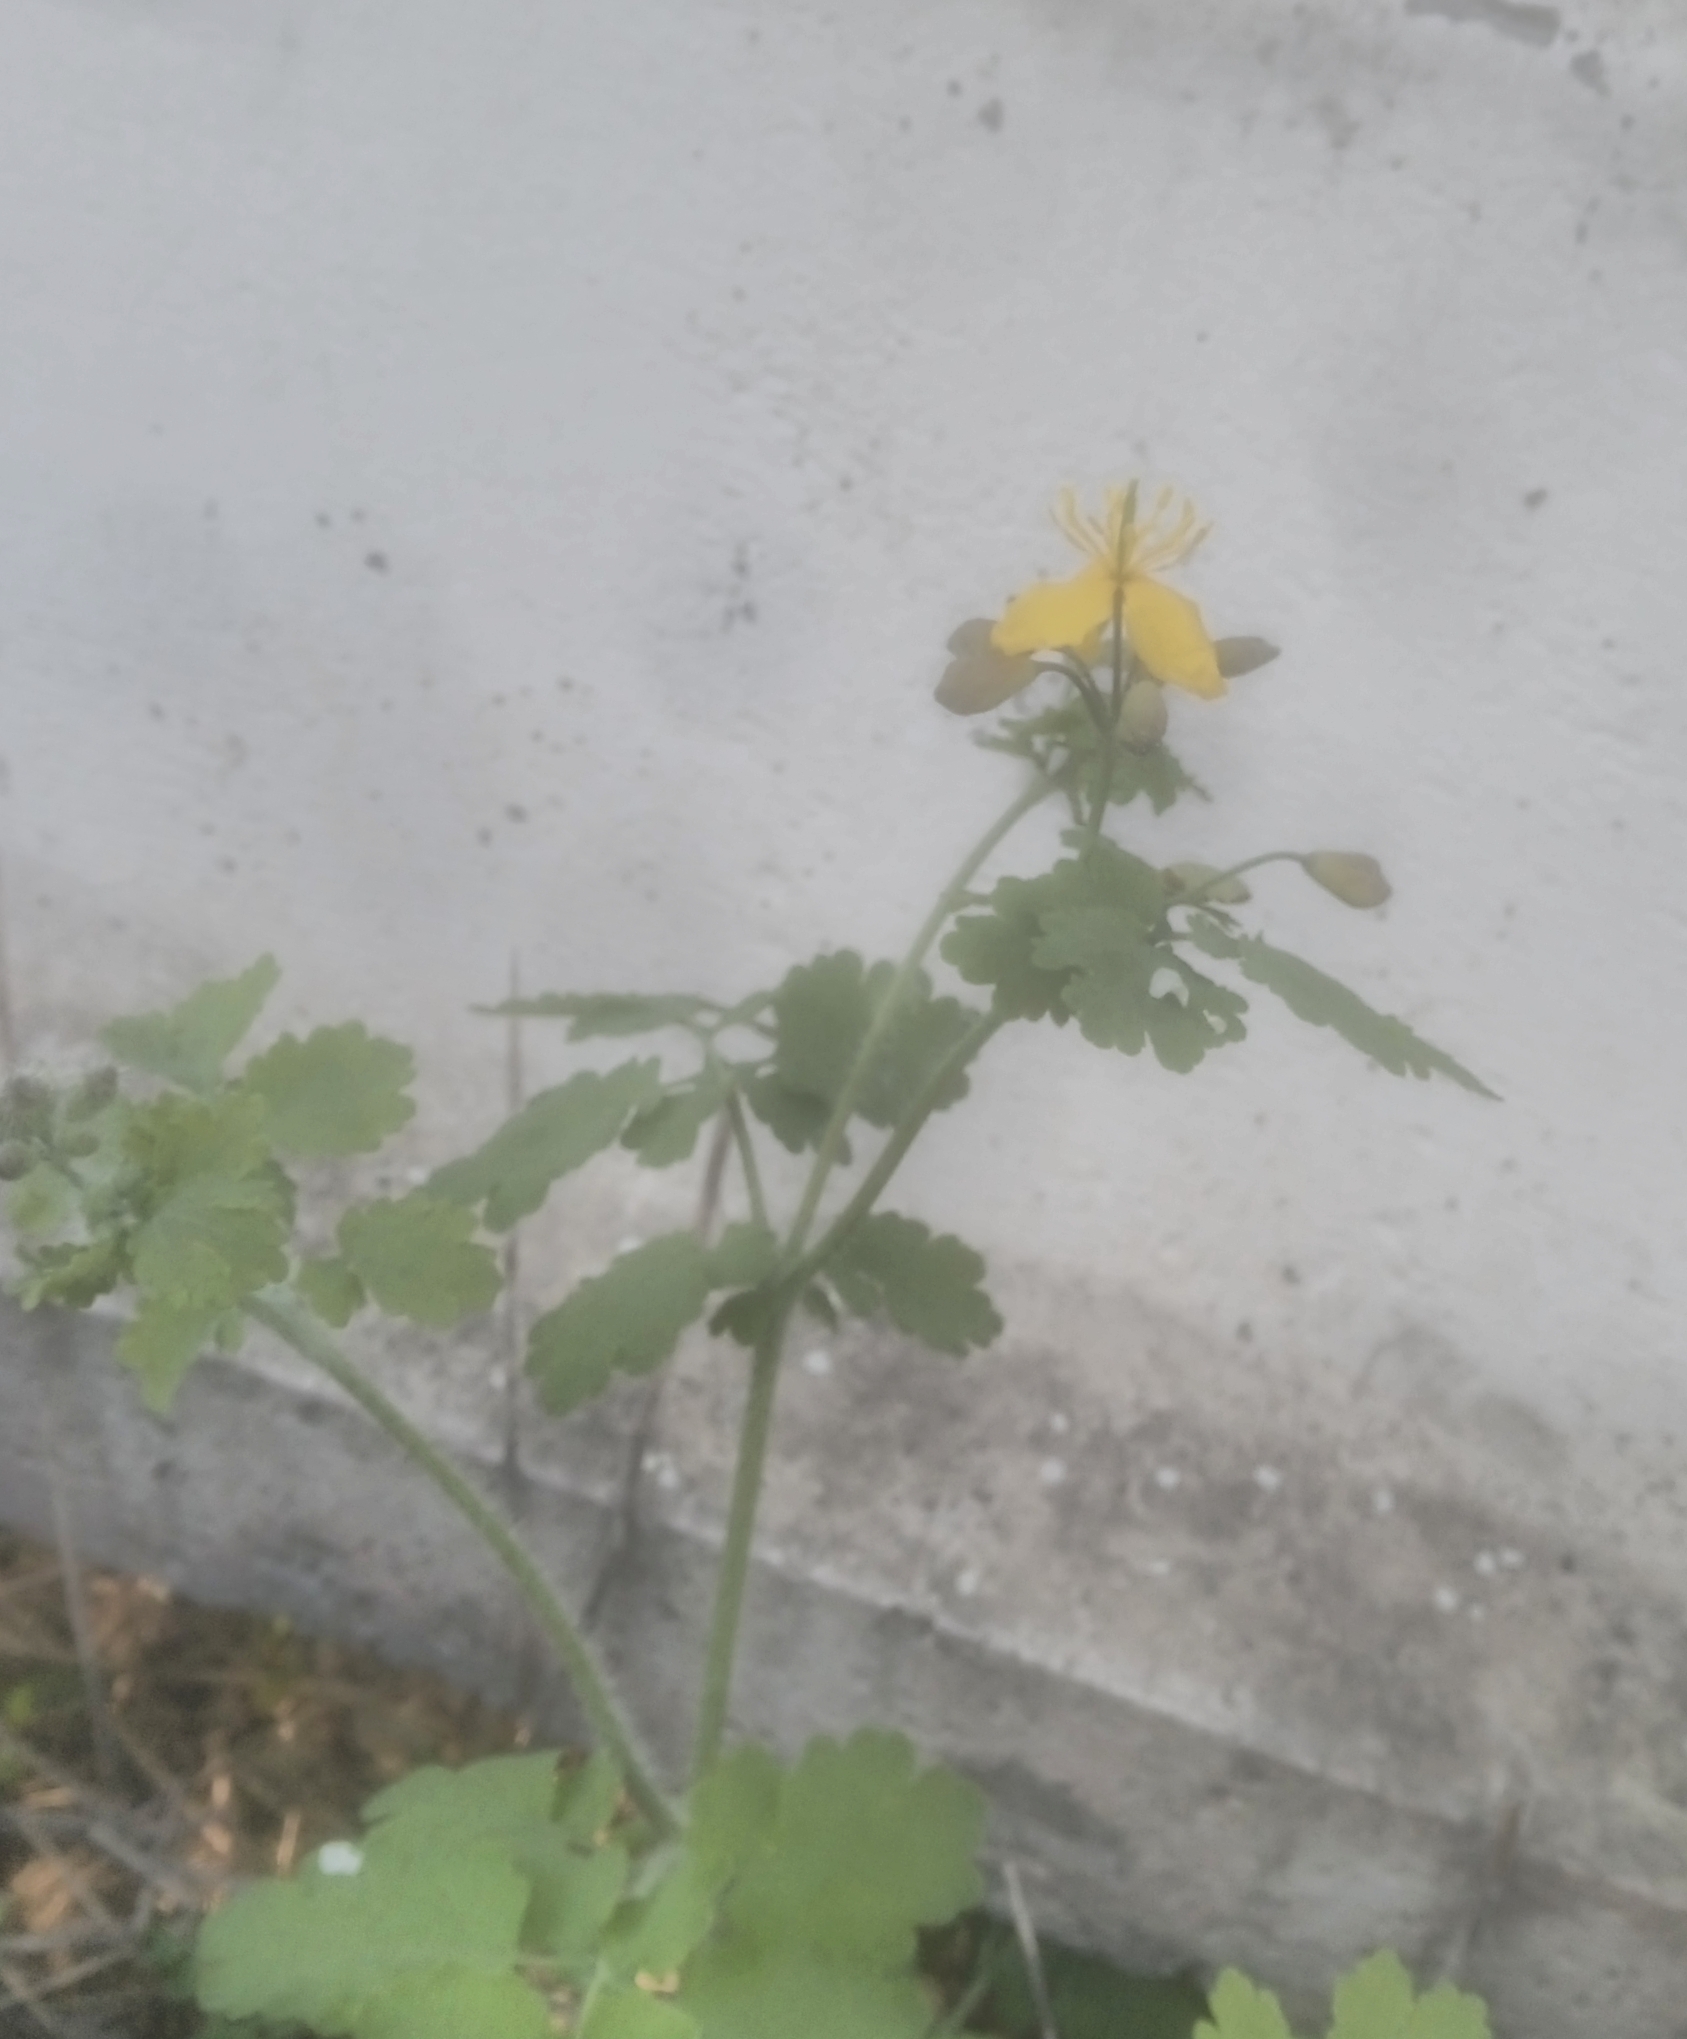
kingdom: Plantae
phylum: Tracheophyta
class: Magnoliopsida
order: Ranunculales
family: Papaveraceae
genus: Chelidonium
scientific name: Chelidonium majus
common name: Greater celandine
